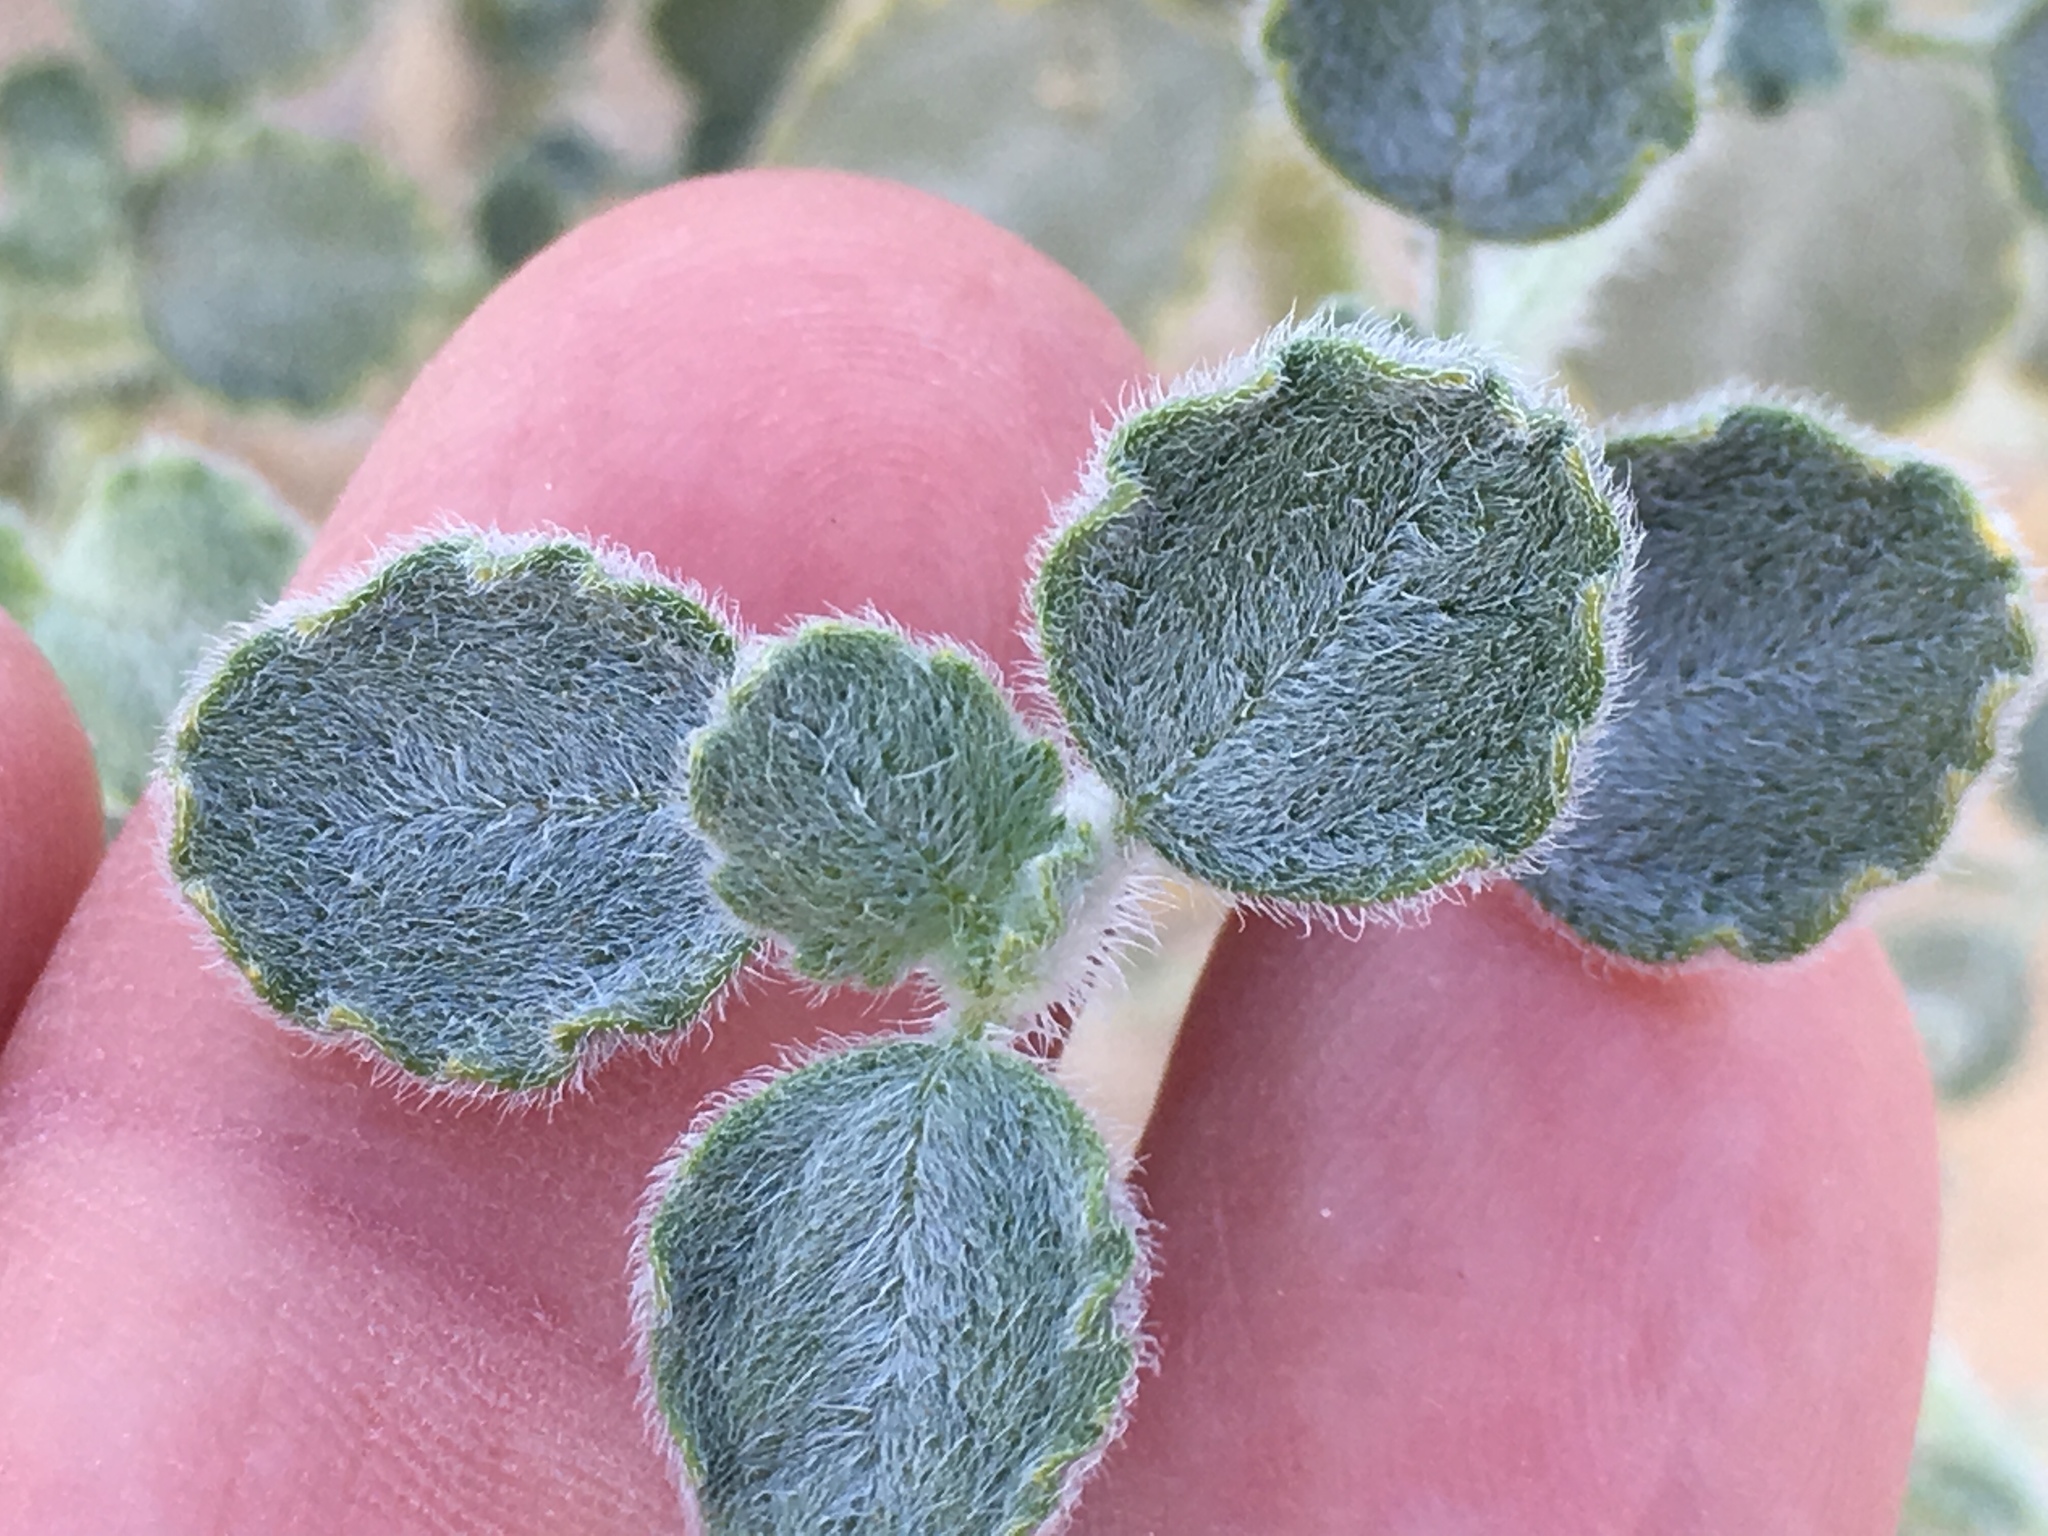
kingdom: Plantae
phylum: Tracheophyta
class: Magnoliopsida
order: Asterales
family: Asteraceae
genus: Dicoria
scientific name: Dicoria canescens
